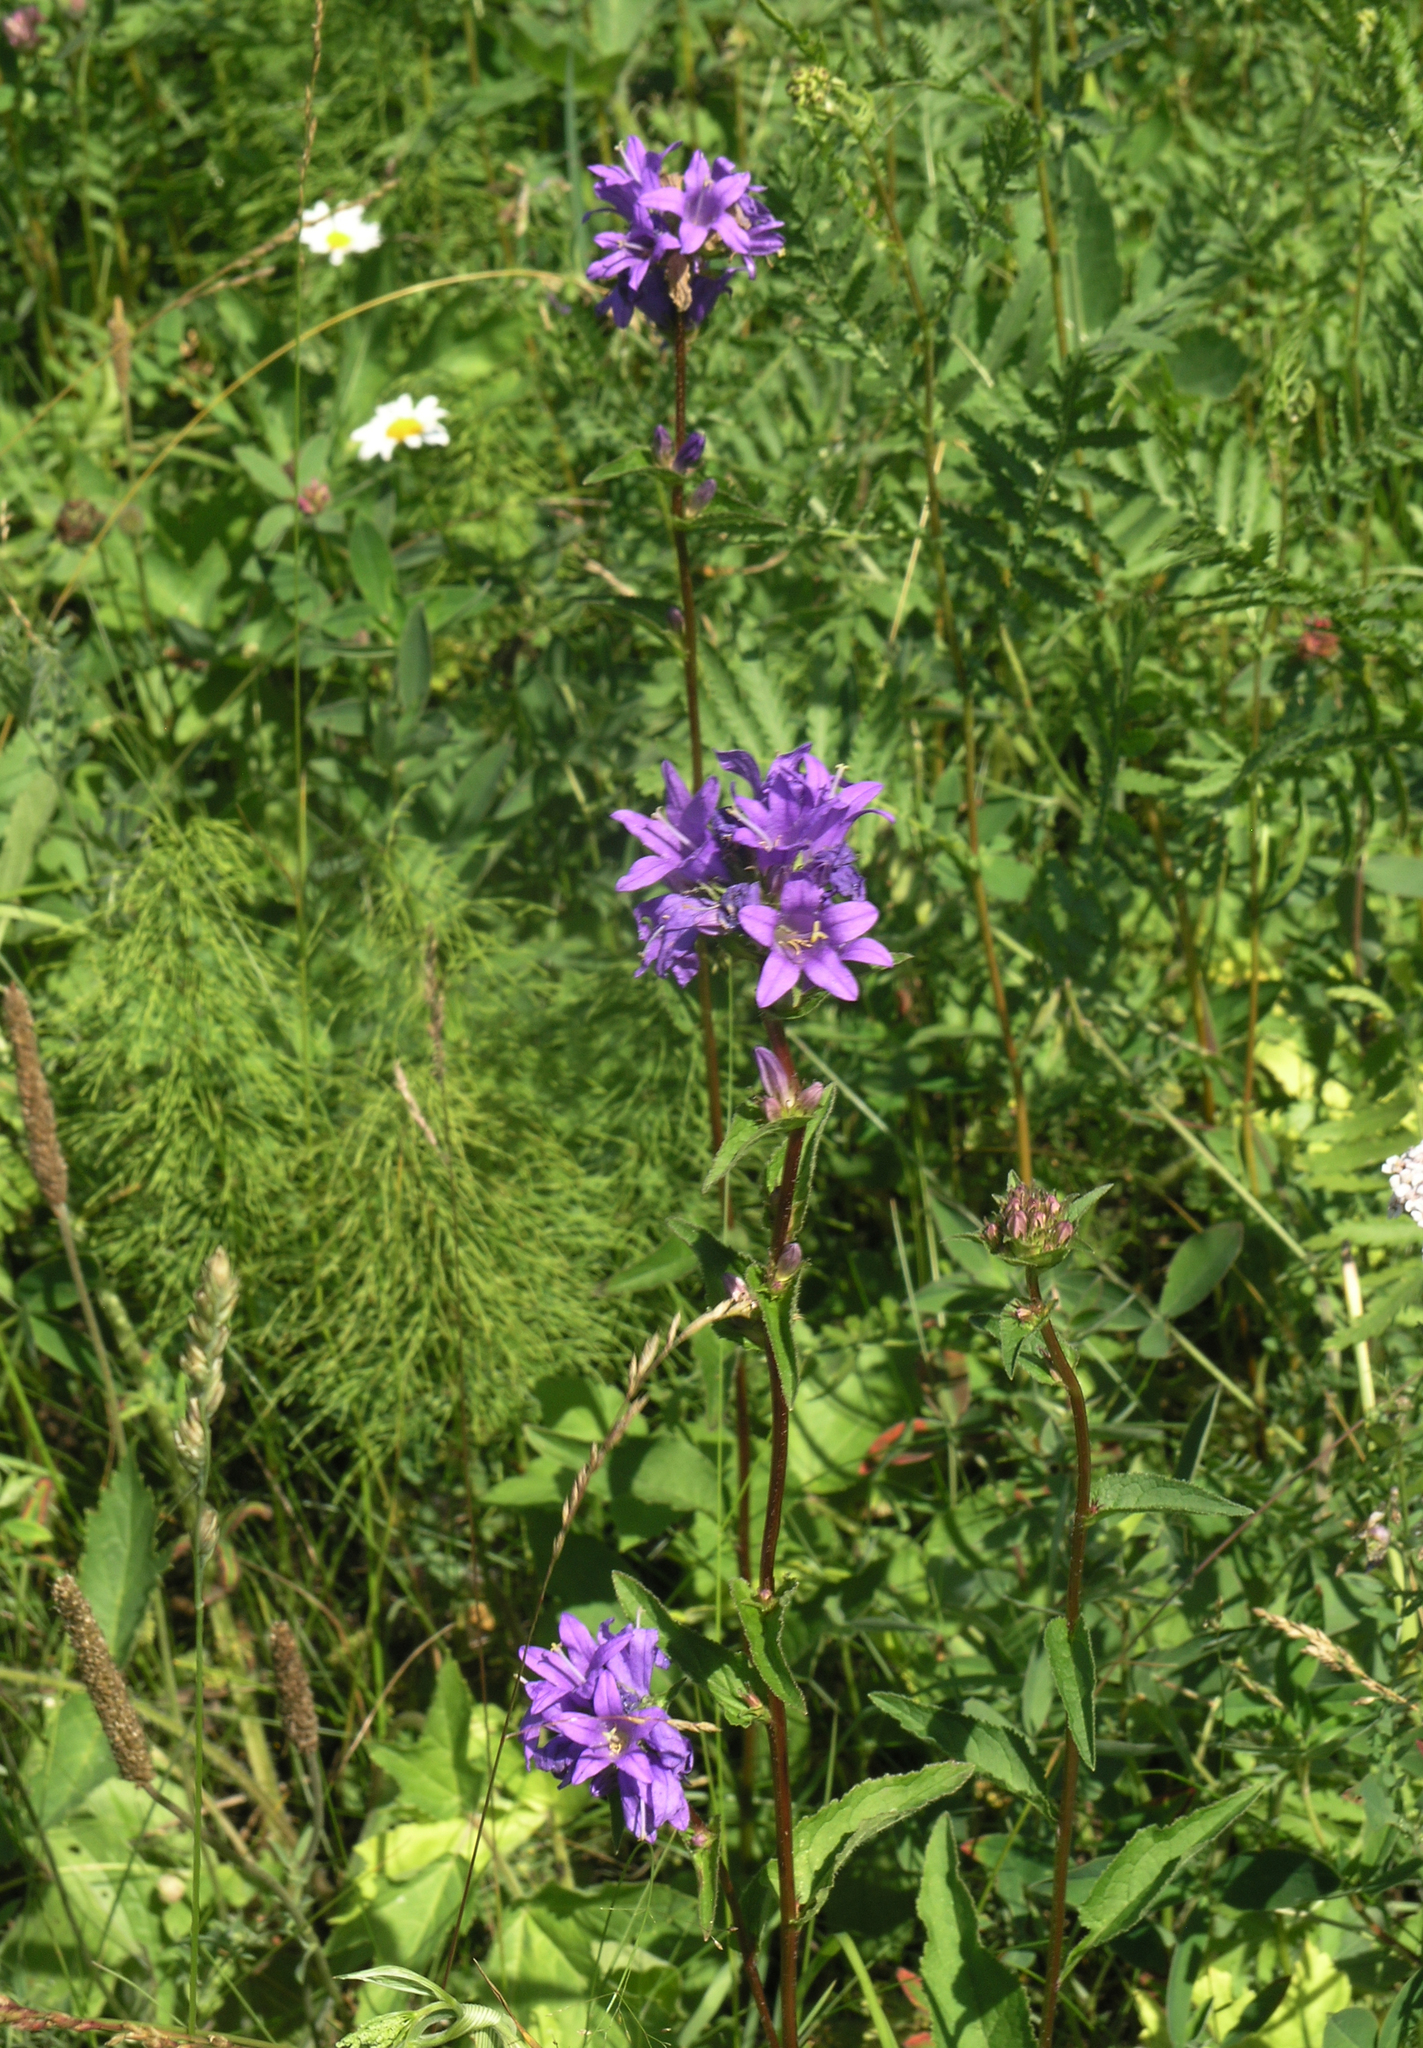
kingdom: Plantae
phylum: Tracheophyta
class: Magnoliopsida
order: Asterales
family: Campanulaceae
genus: Campanula
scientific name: Campanula glomerata
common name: Clustered bellflower
